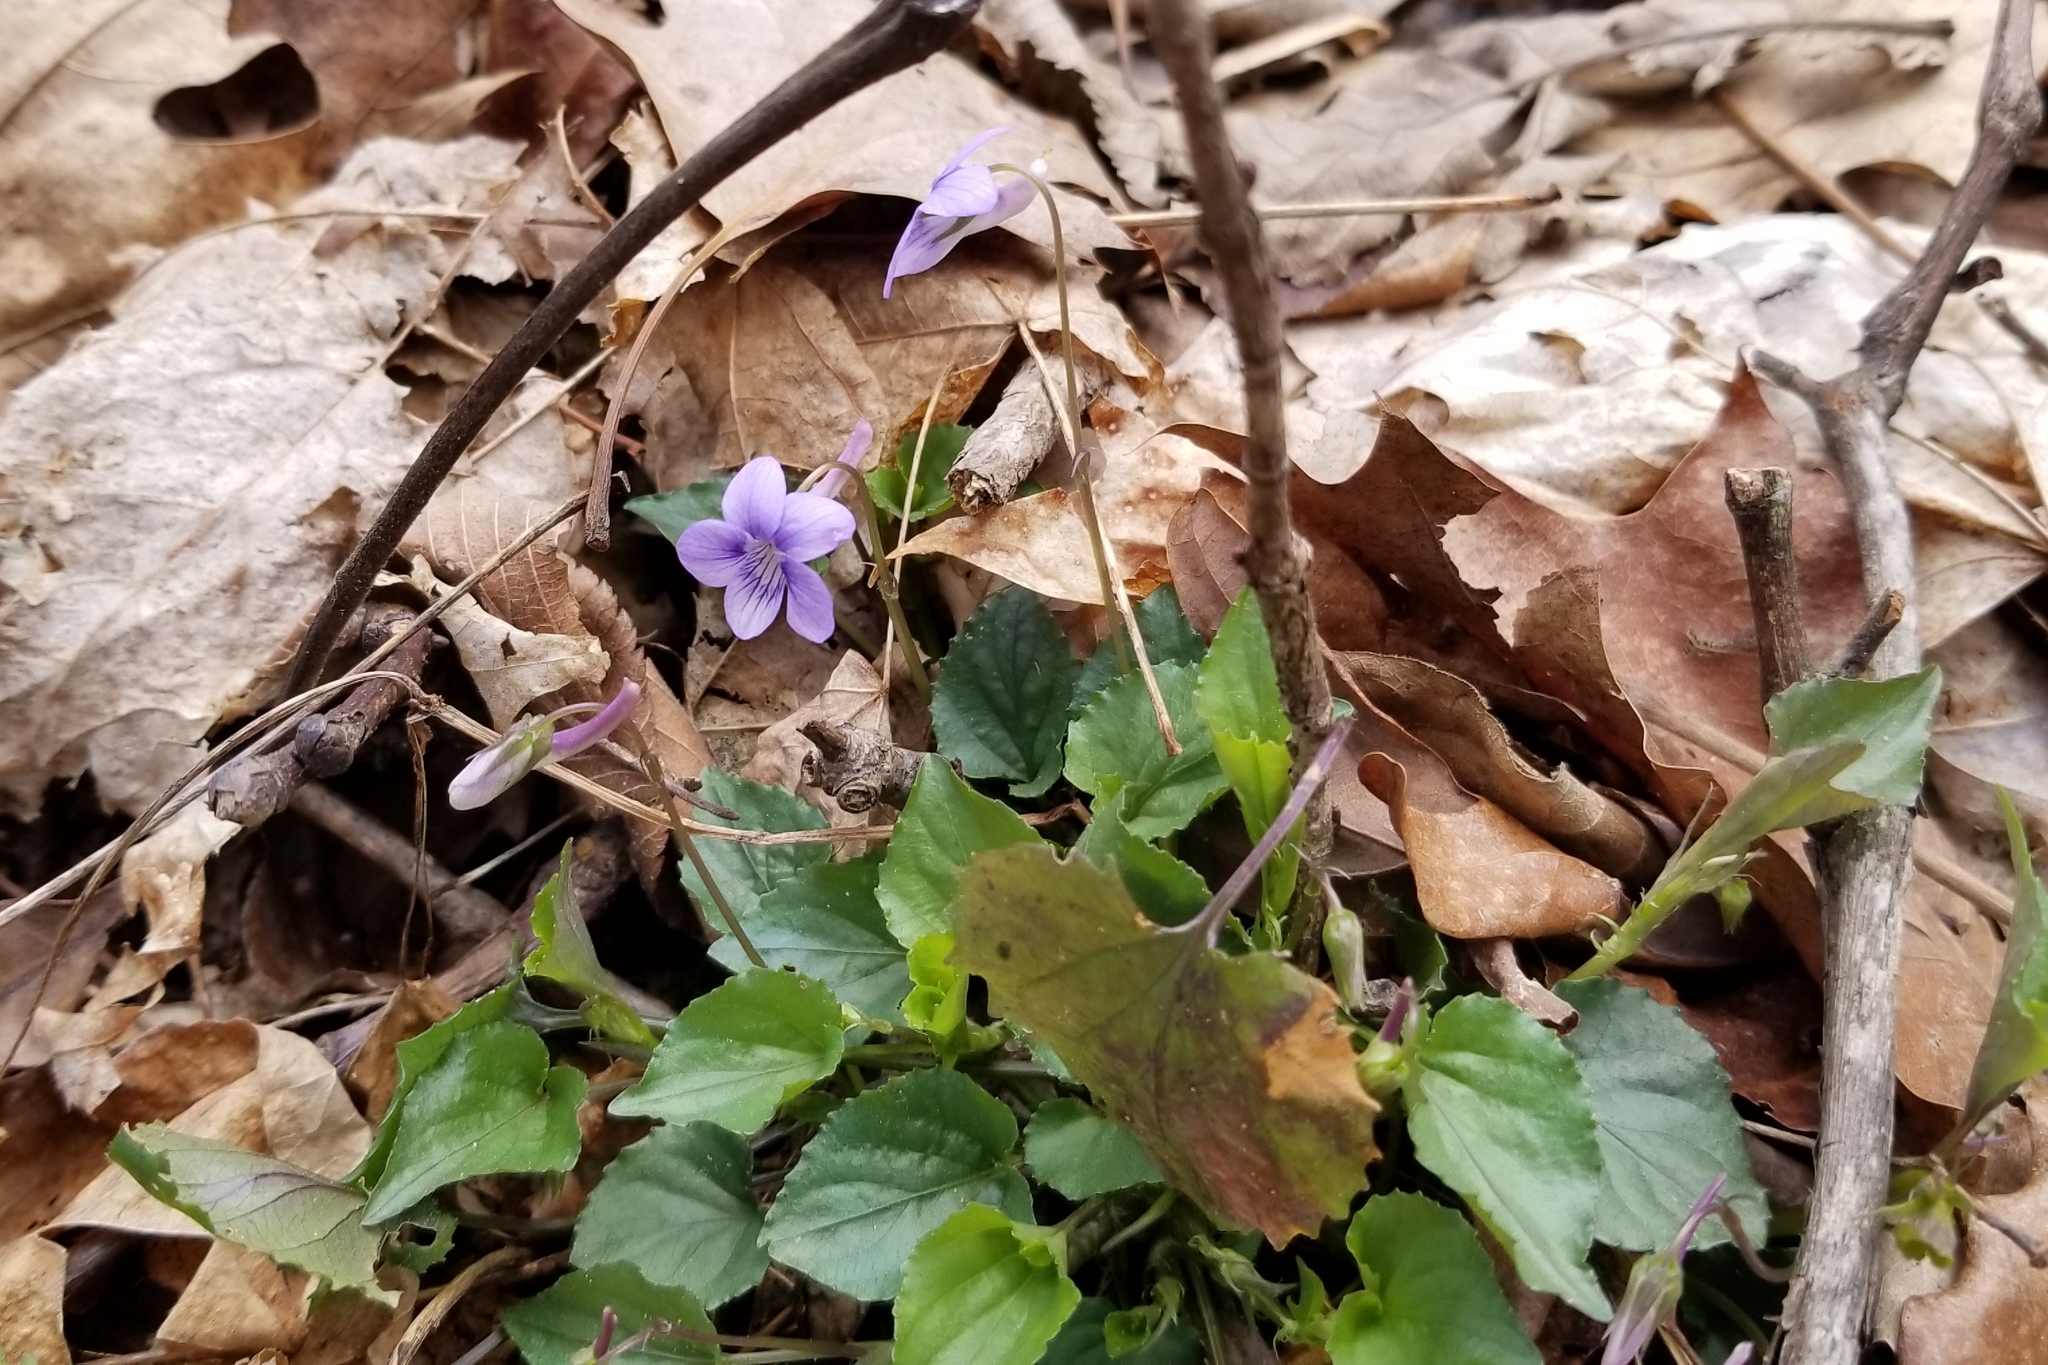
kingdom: Plantae
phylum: Tracheophyta
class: Magnoliopsida
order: Malpighiales
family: Violaceae
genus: Viola
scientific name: Viola rostrata
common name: Long-spur violet
